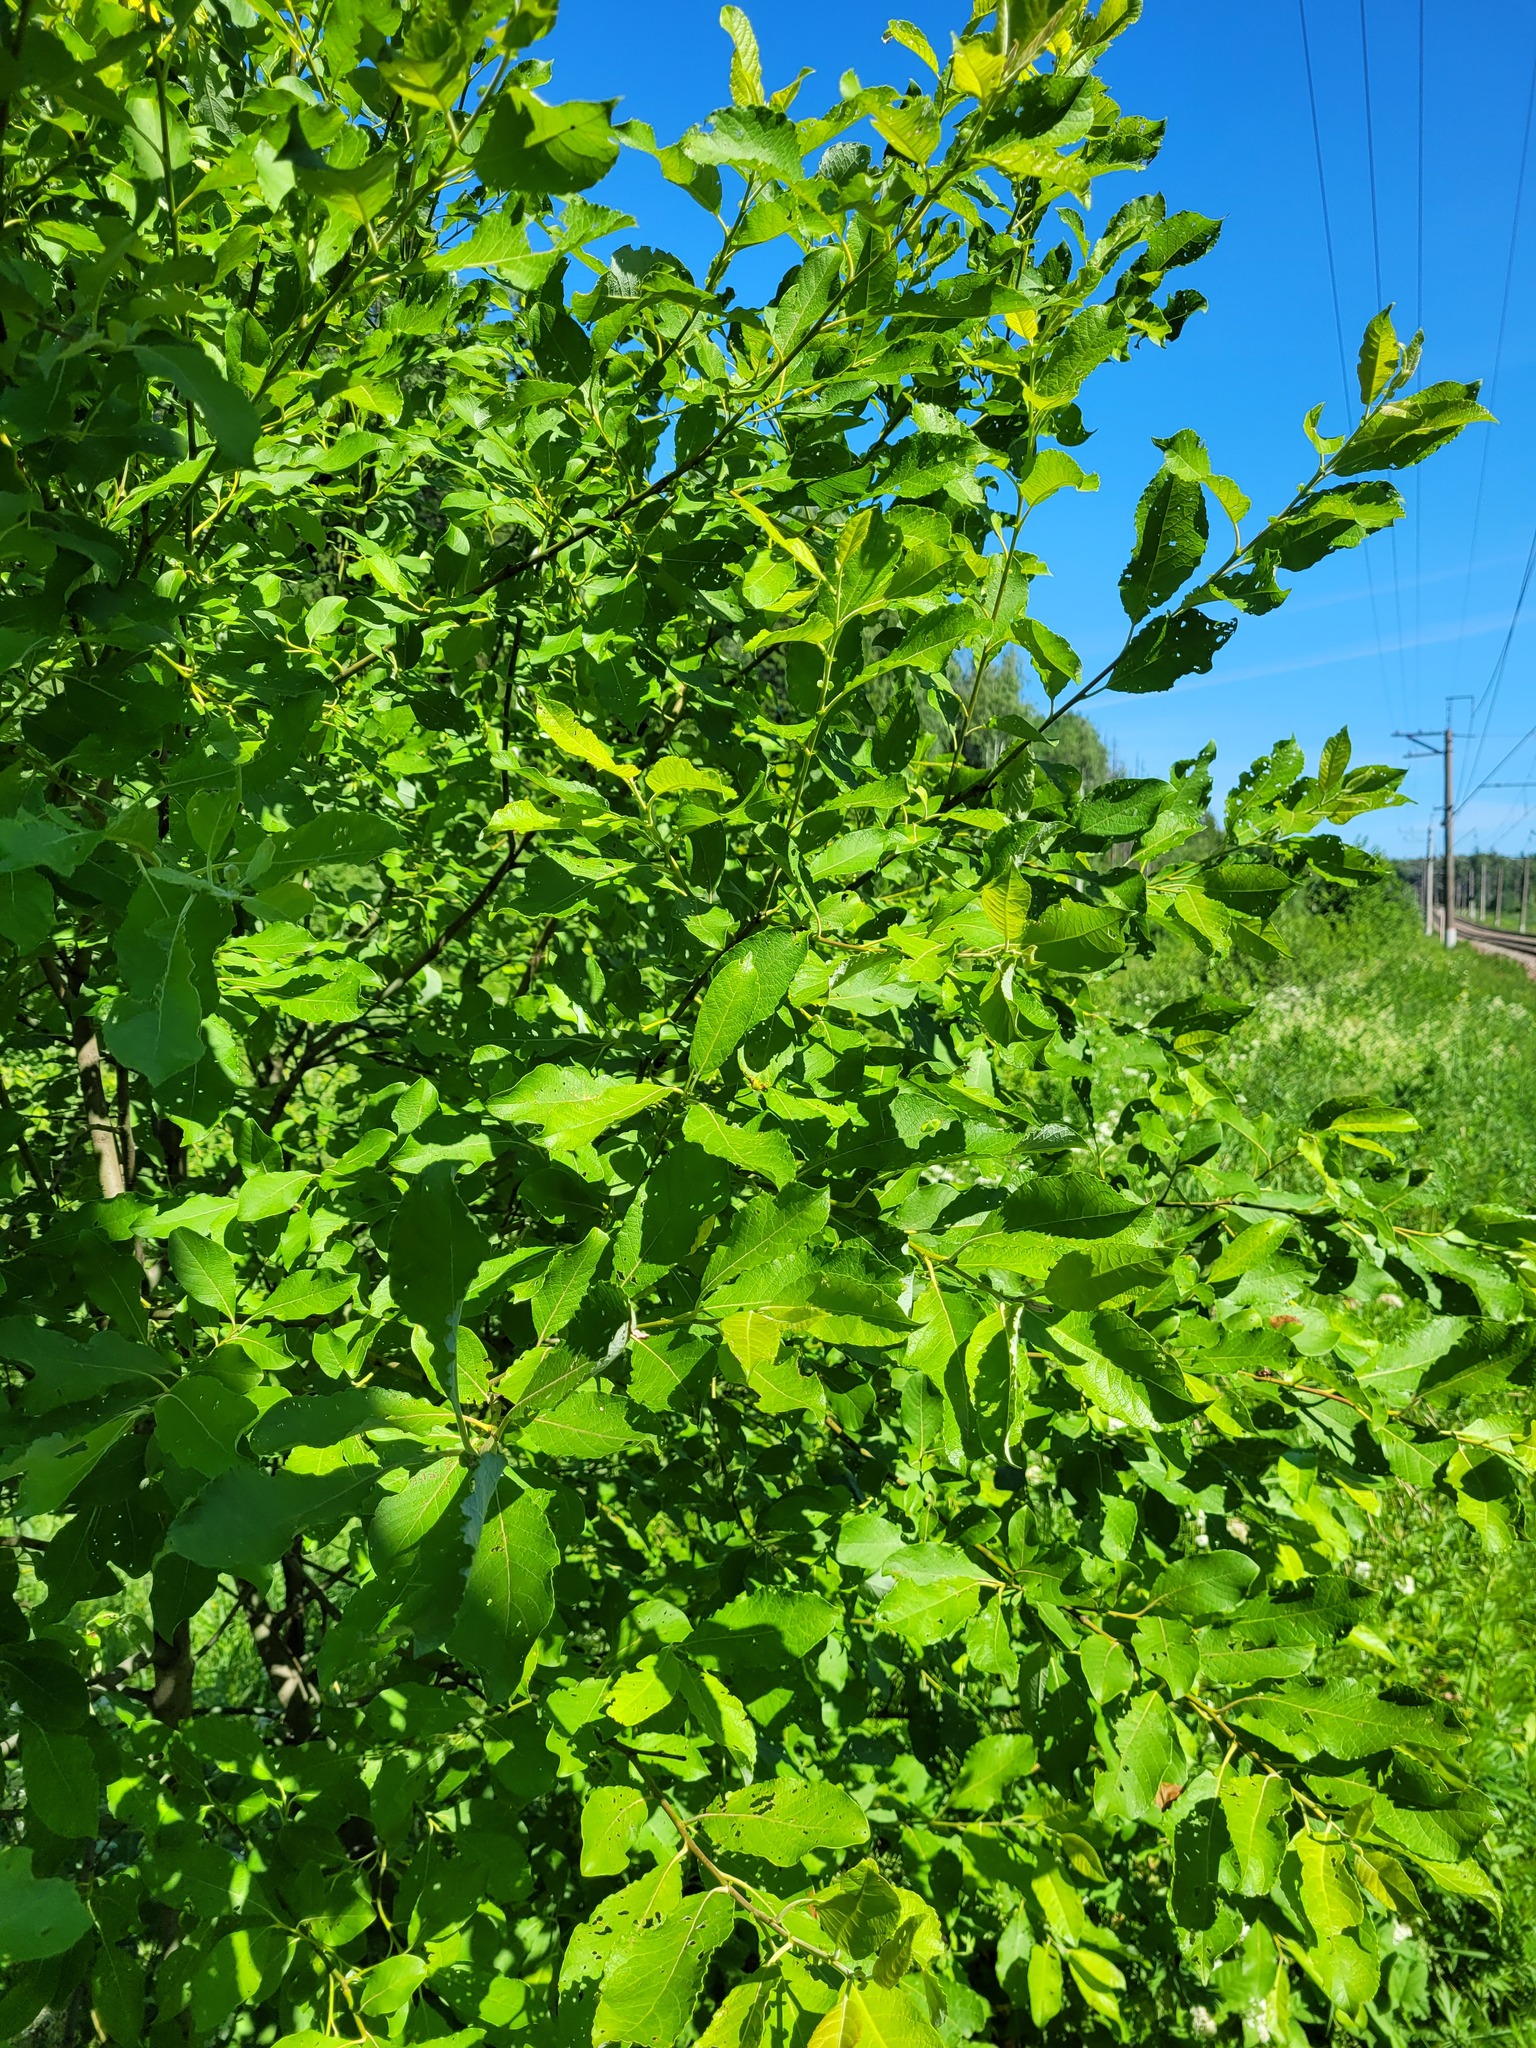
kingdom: Plantae
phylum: Tracheophyta
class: Magnoliopsida
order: Malpighiales
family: Salicaceae
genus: Salix
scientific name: Salix caprea
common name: Goat willow
